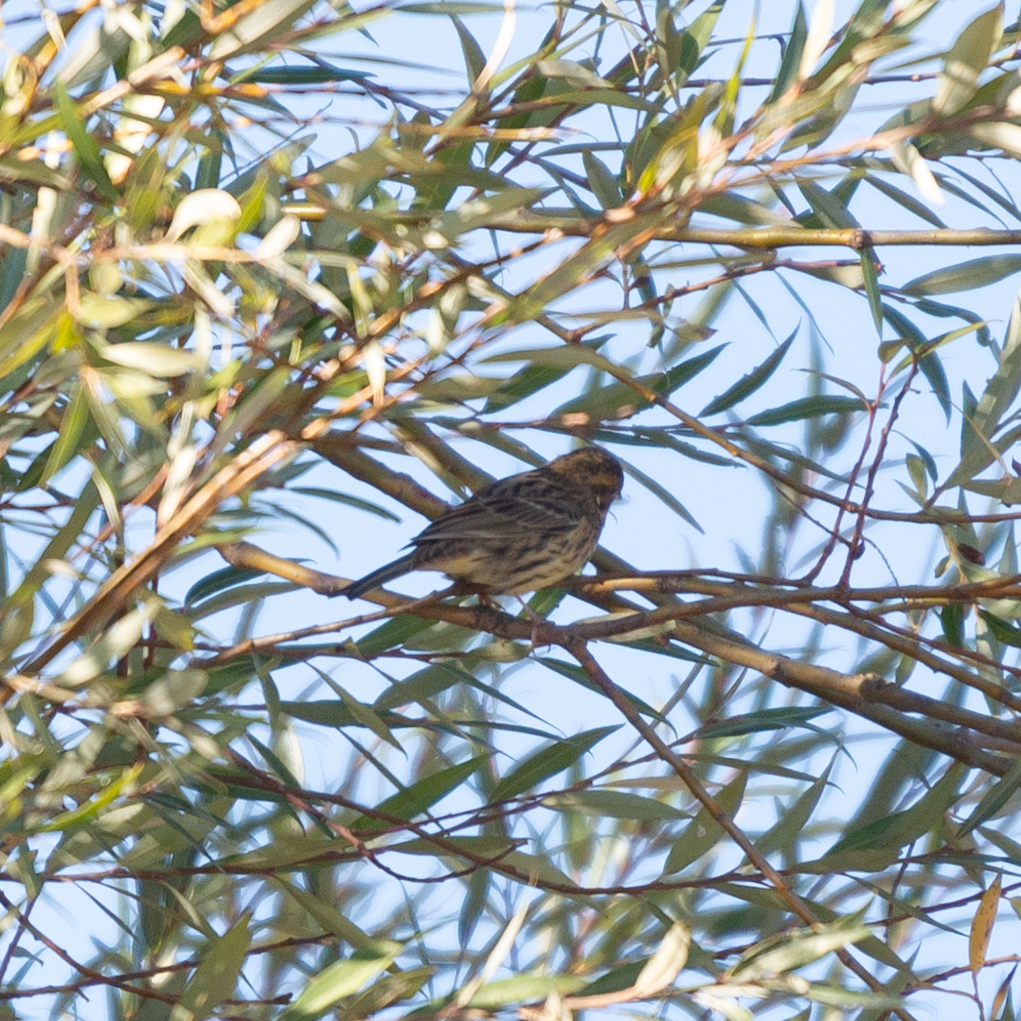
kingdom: Animalia
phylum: Chordata
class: Aves
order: Passeriformes
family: Emberizidae
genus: Emberiza
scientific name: Emberiza cirlus
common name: Cirl bunting
